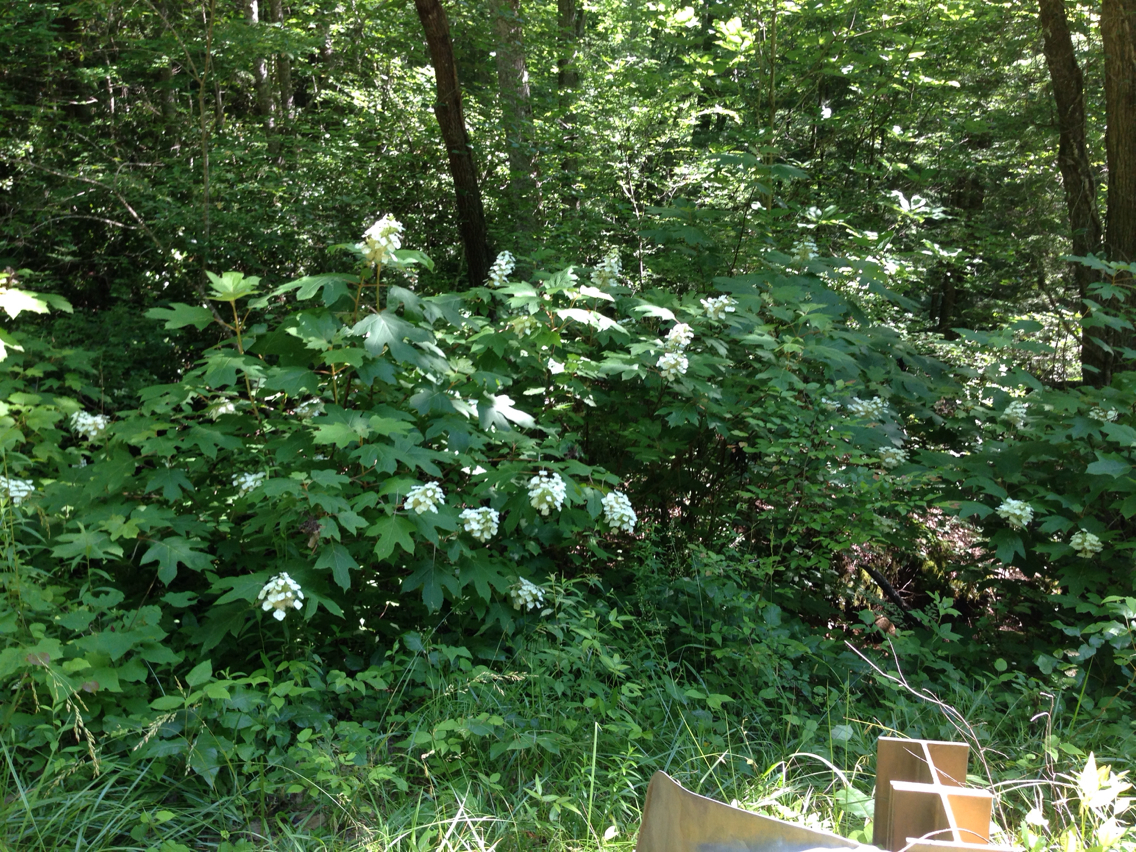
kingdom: Plantae
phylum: Tracheophyta
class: Magnoliopsida
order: Cornales
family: Hydrangeaceae
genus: Hydrangea
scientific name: Hydrangea quercifolia
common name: Oak-leaf hydrangea
